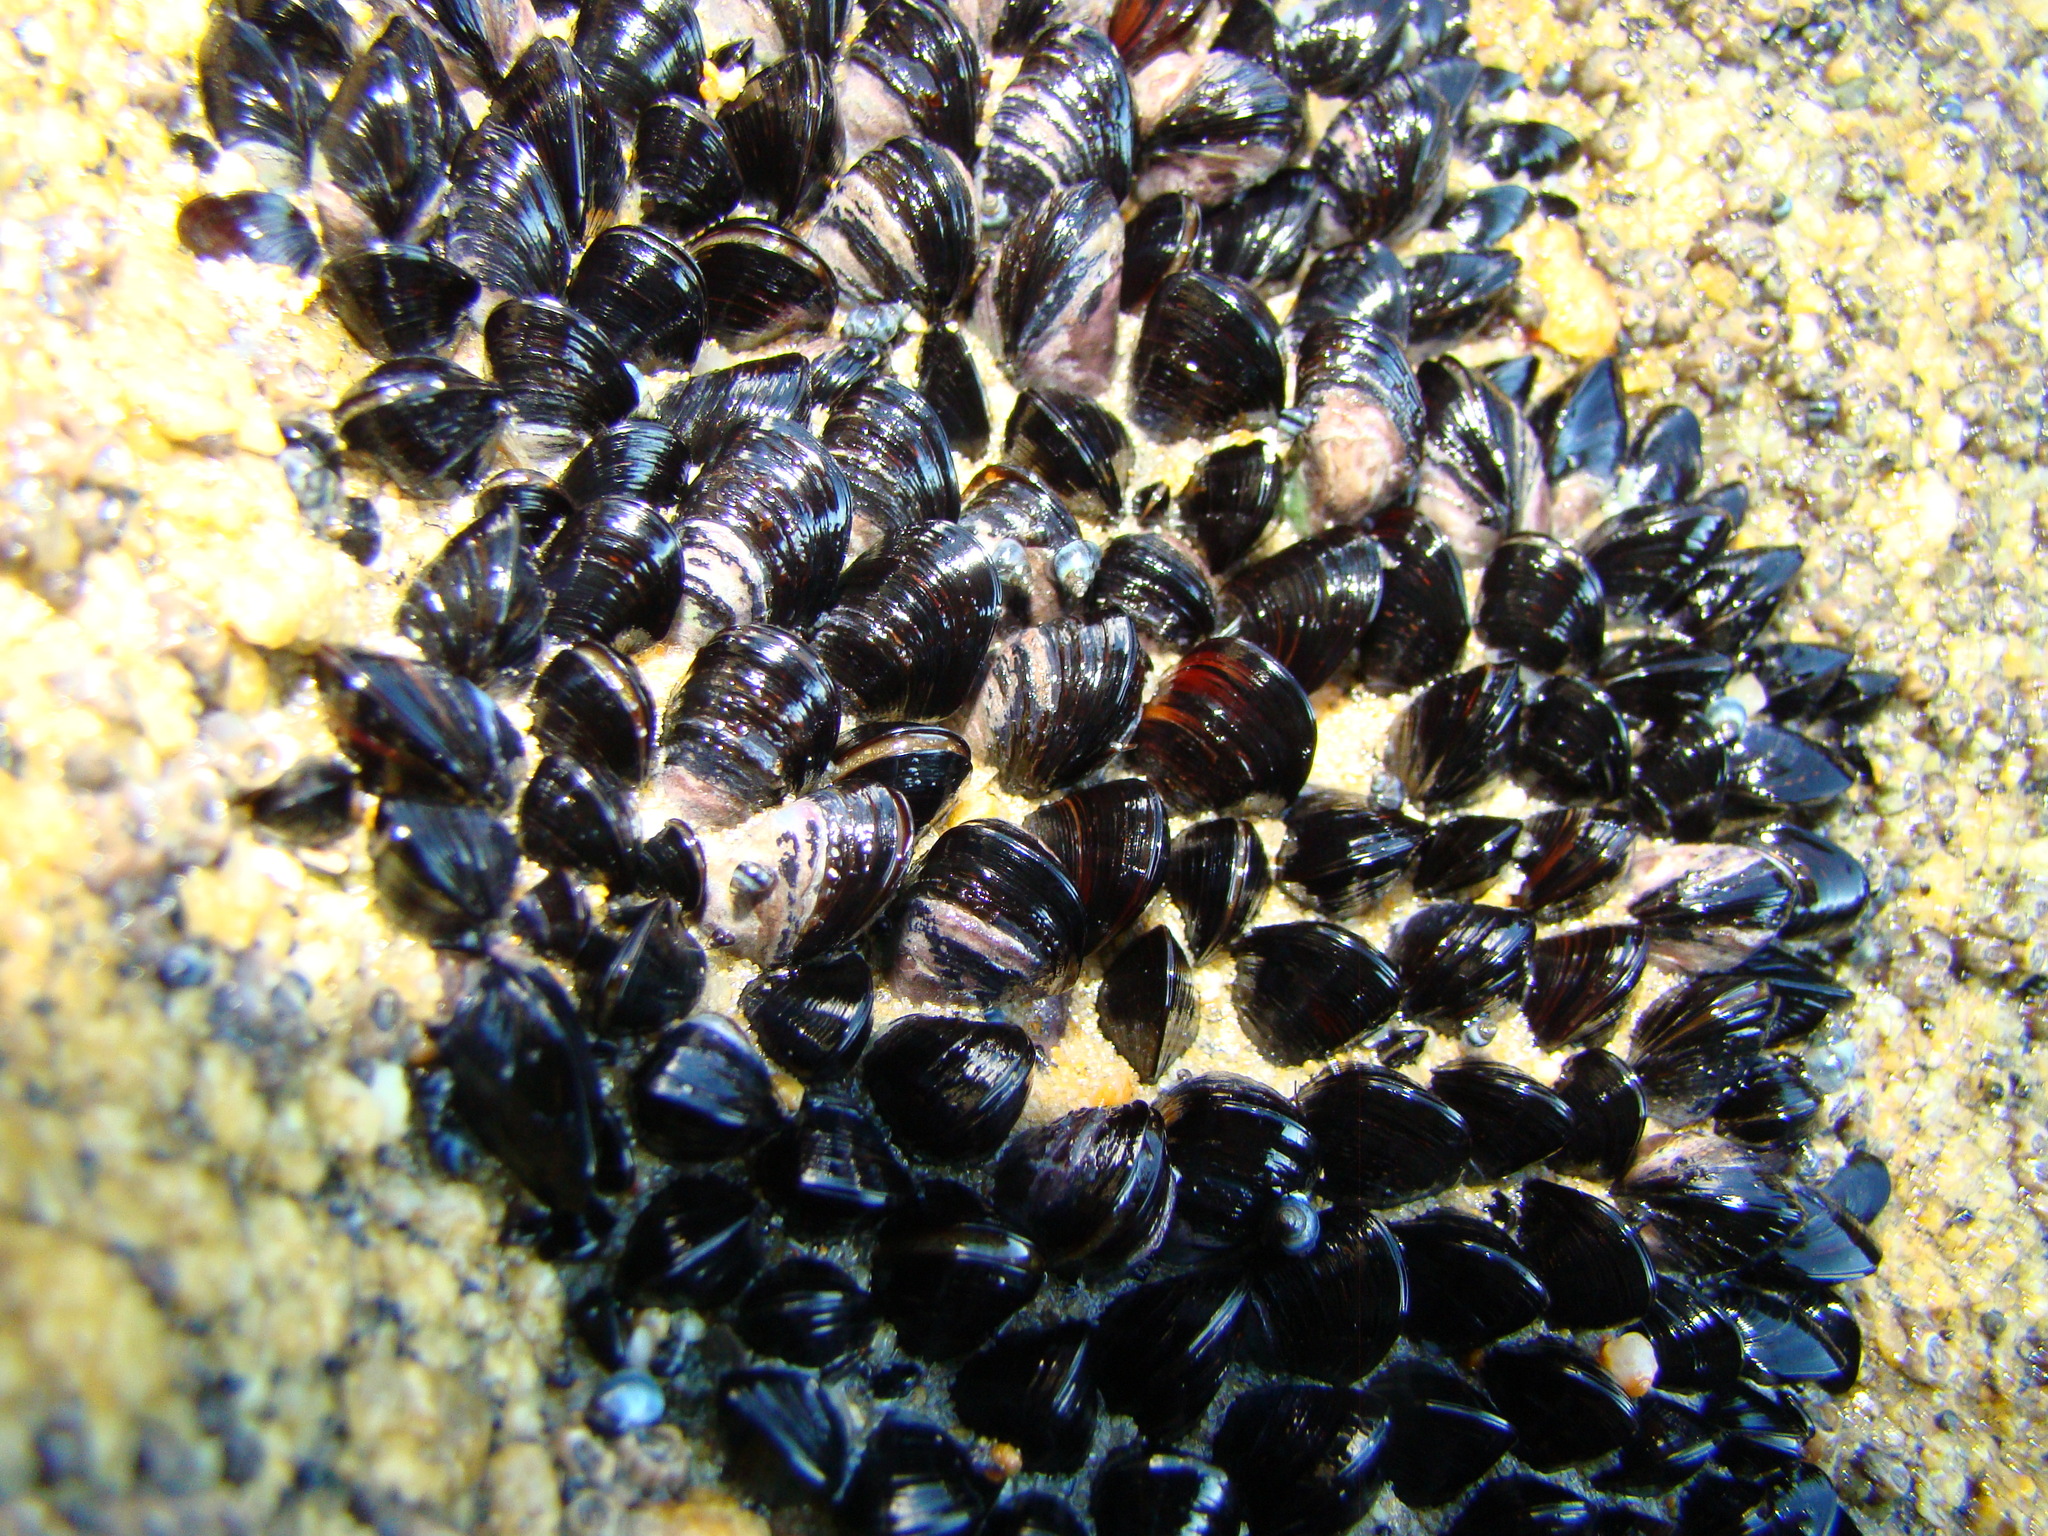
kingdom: Animalia
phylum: Mollusca
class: Bivalvia
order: Mytilida
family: Mytilidae
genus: Xenostrobus
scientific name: Xenostrobus neozelanicus
